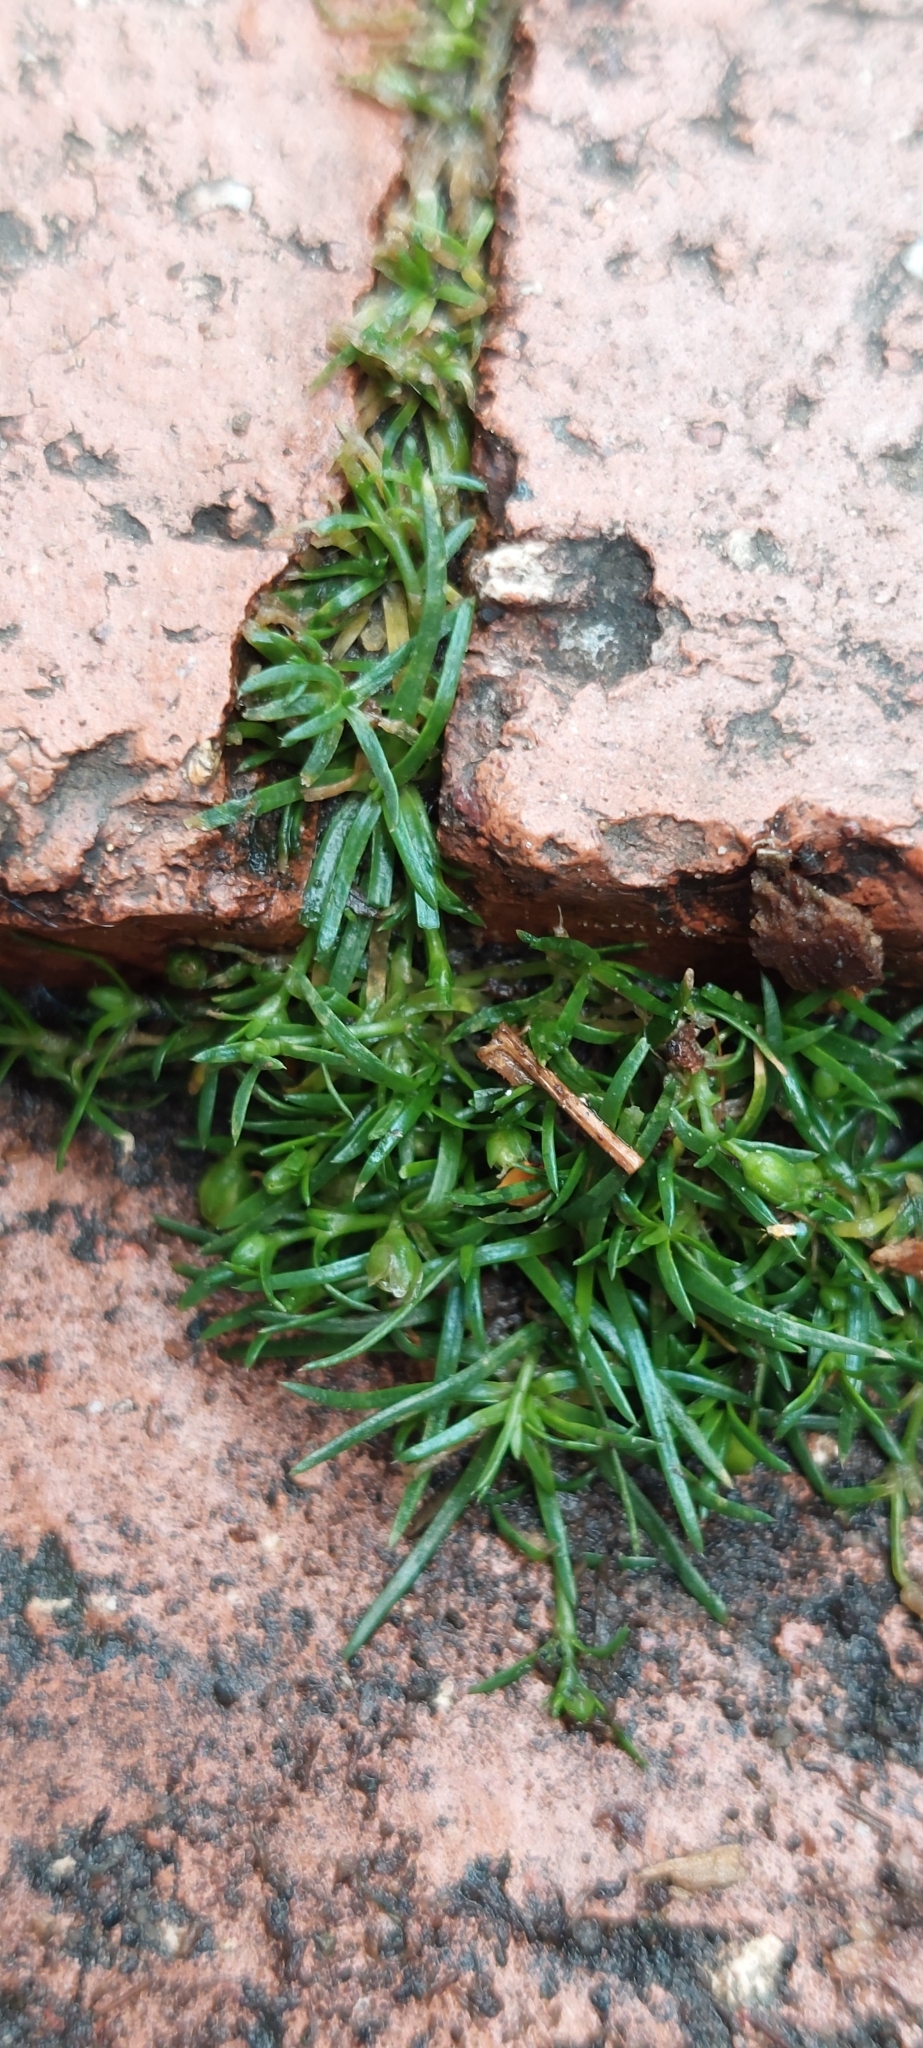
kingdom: Plantae
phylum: Tracheophyta
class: Magnoliopsida
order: Caryophyllales
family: Caryophyllaceae
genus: Sagina
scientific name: Sagina procumbens
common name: Procumbent pearlwort
